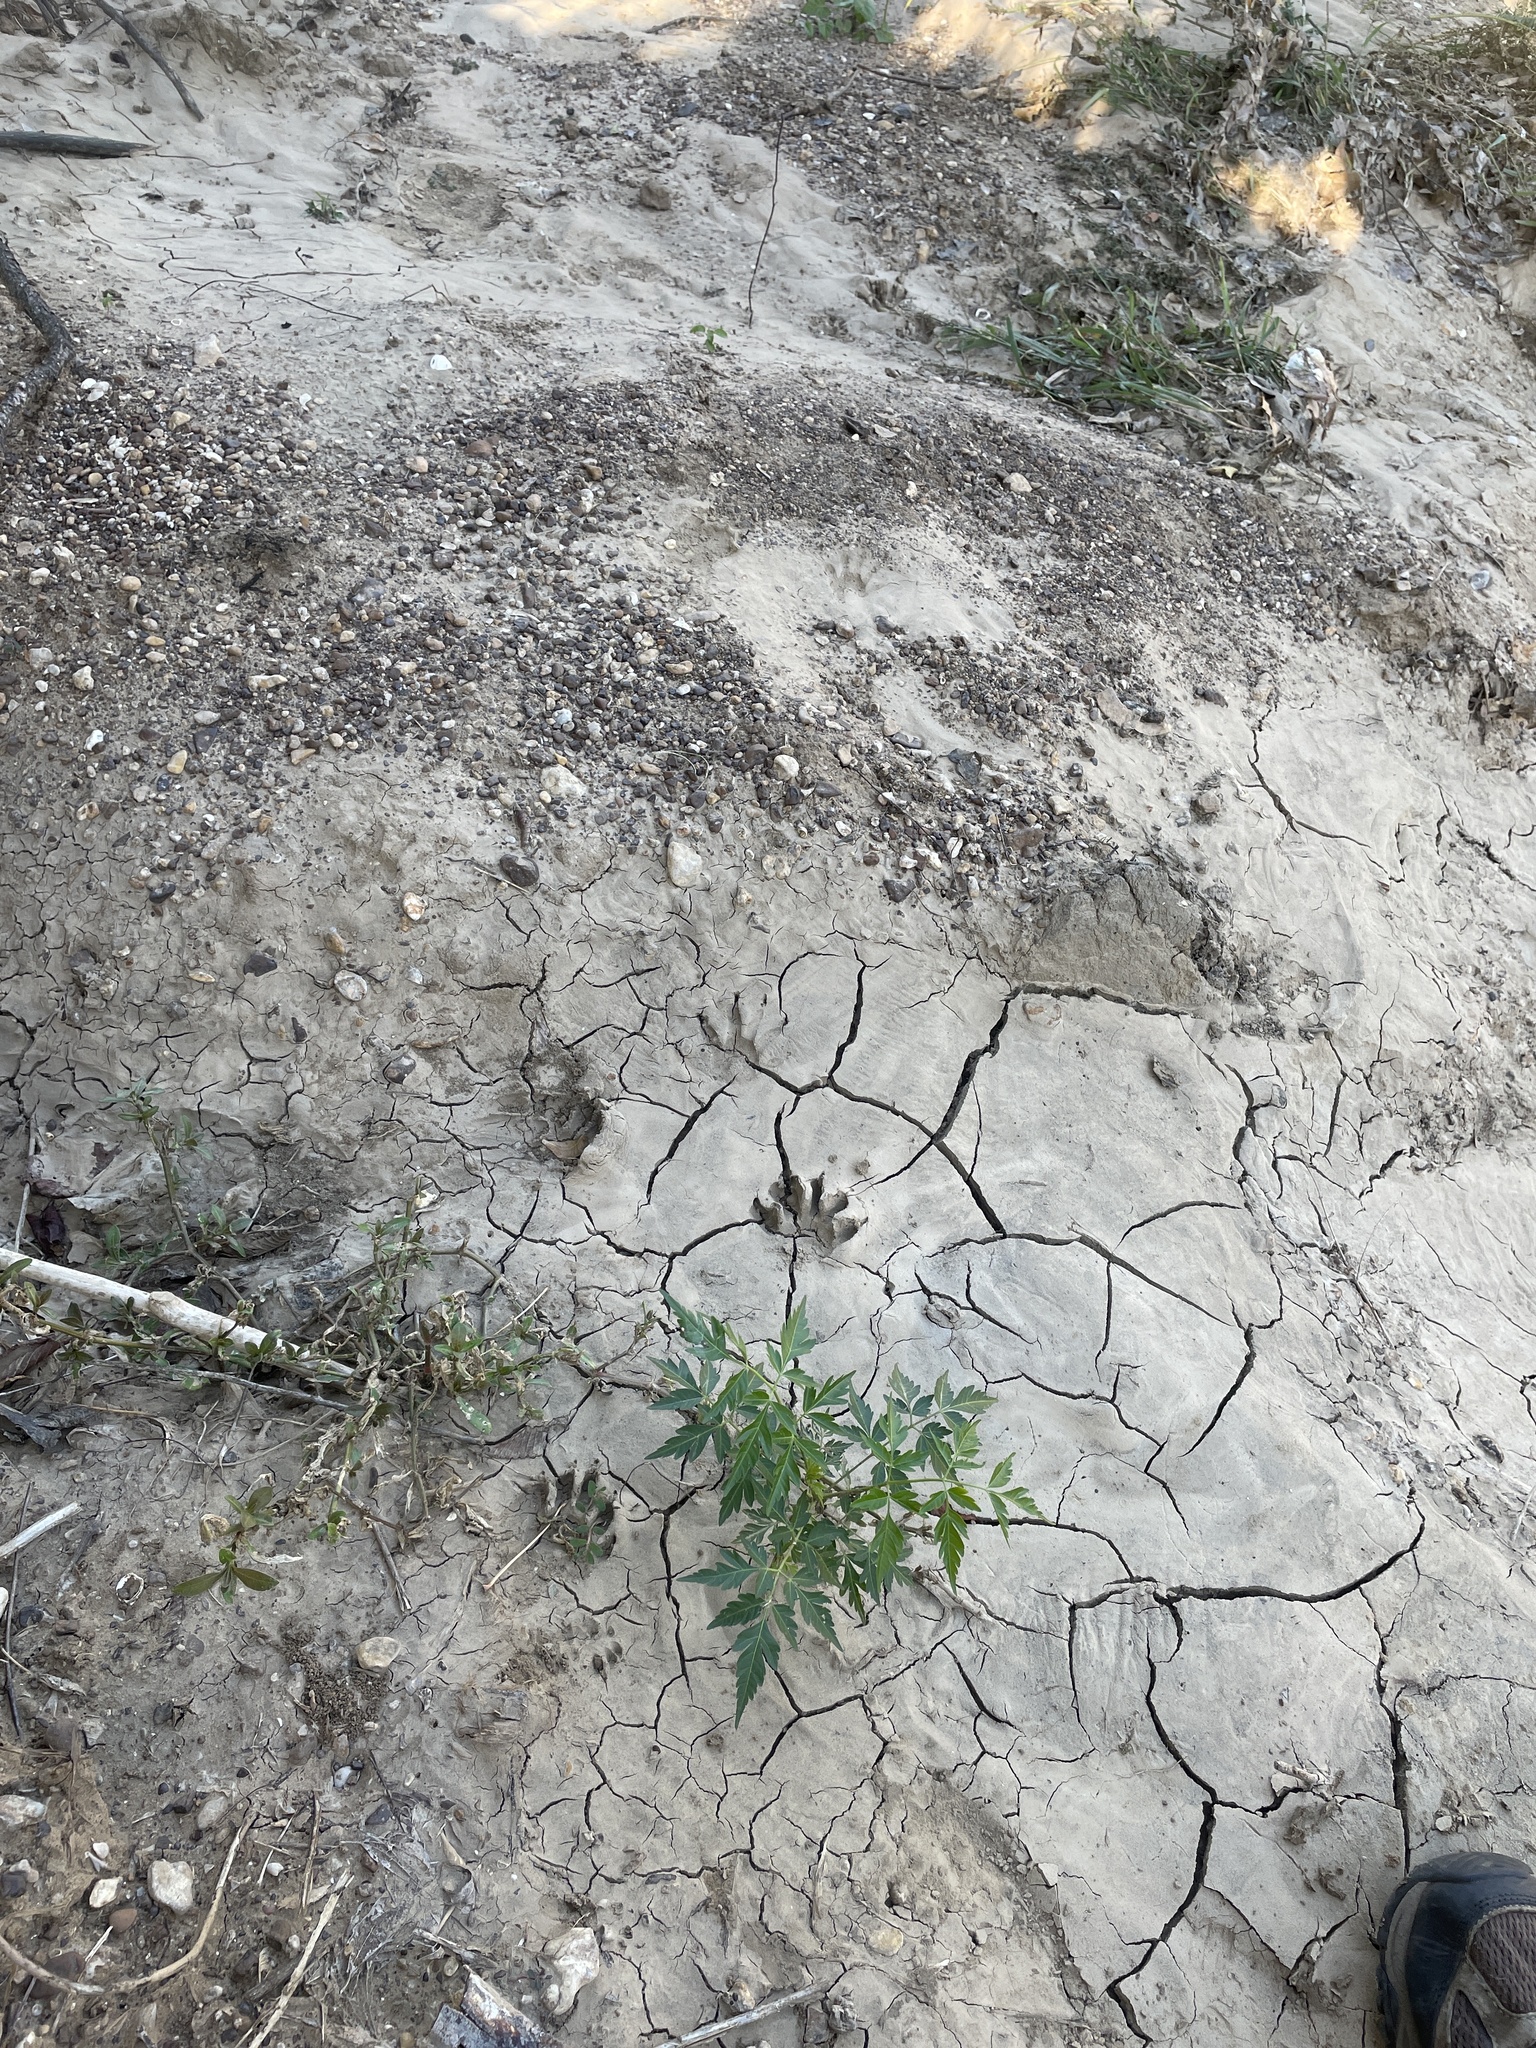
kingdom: Animalia
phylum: Chordata
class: Mammalia
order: Carnivora
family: Procyonidae
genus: Procyon
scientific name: Procyon lotor
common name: Raccoon
